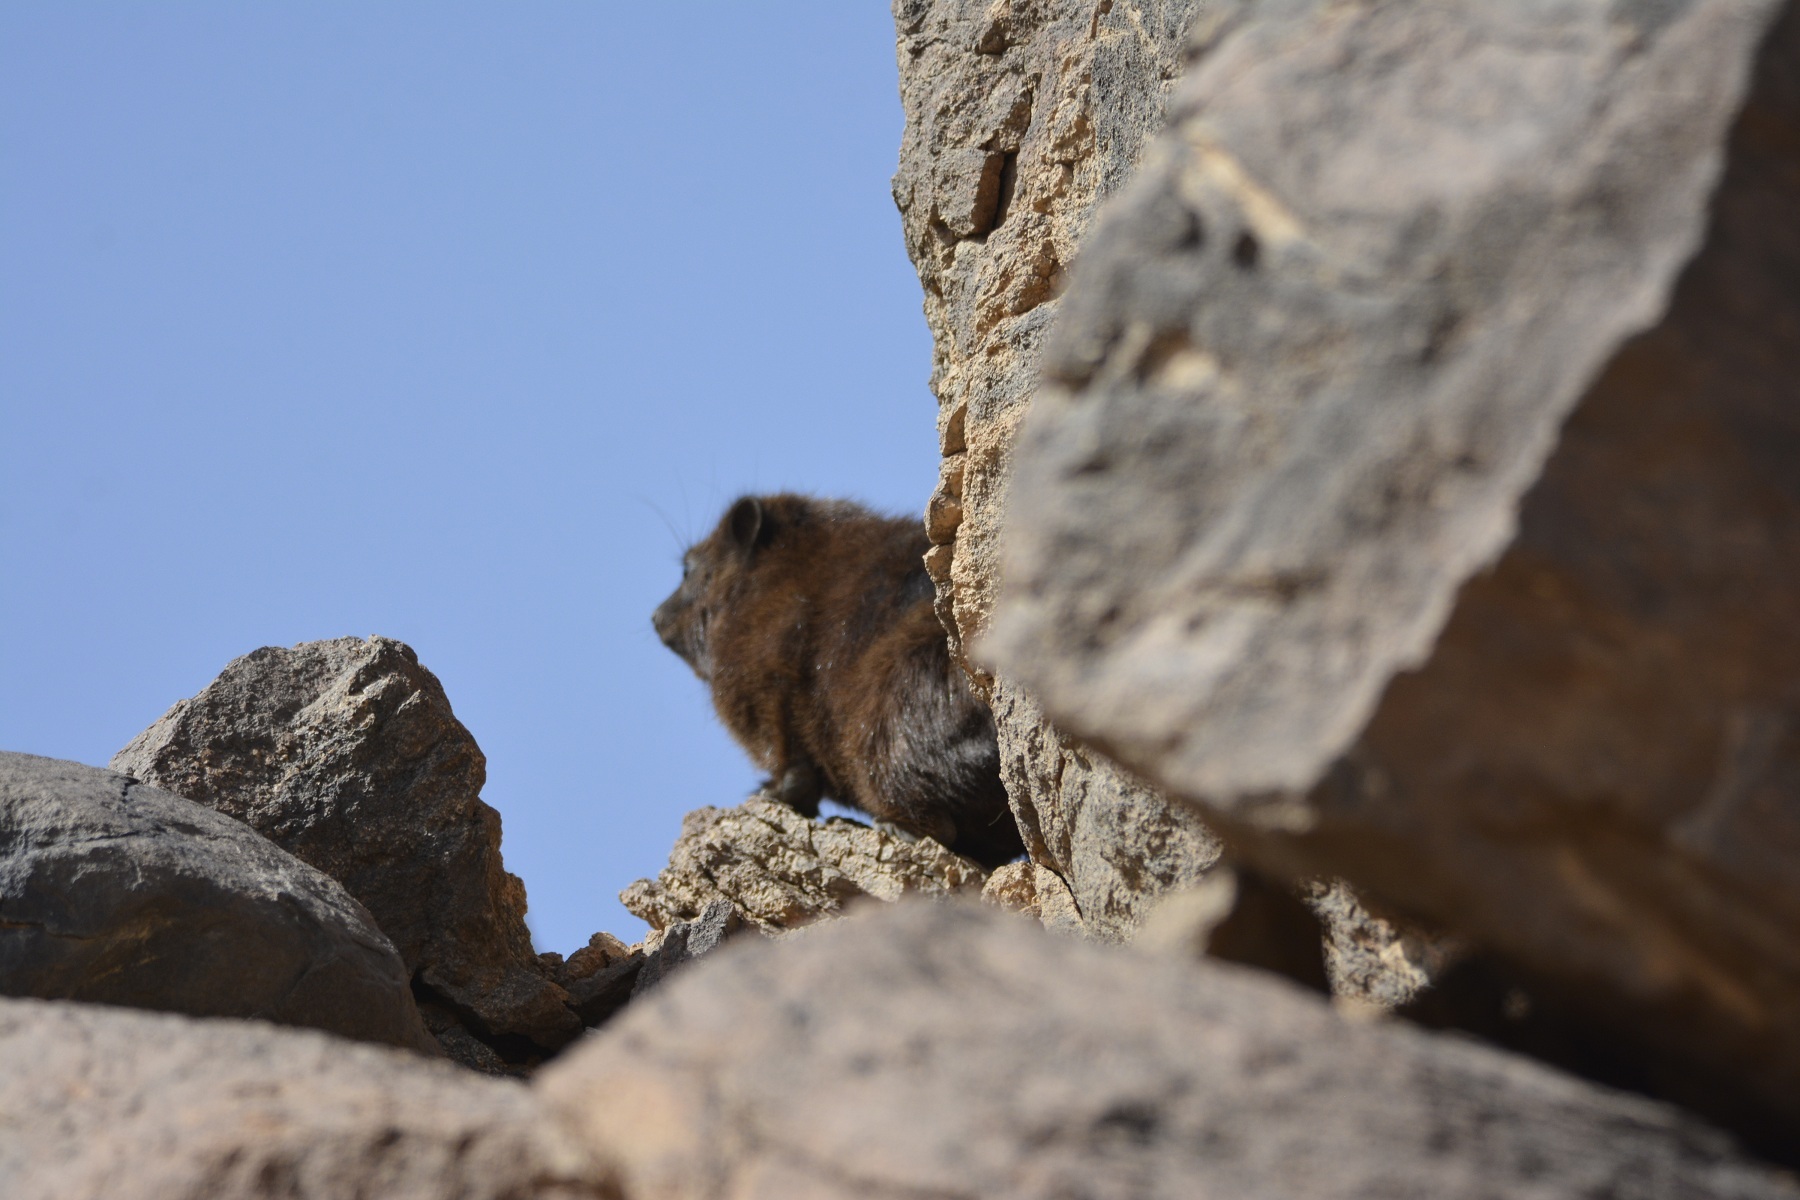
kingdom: Animalia
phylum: Chordata
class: Mammalia
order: Hyracoidea
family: Procaviidae
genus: Procavia
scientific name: Procavia capensis
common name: Rock hyrax
